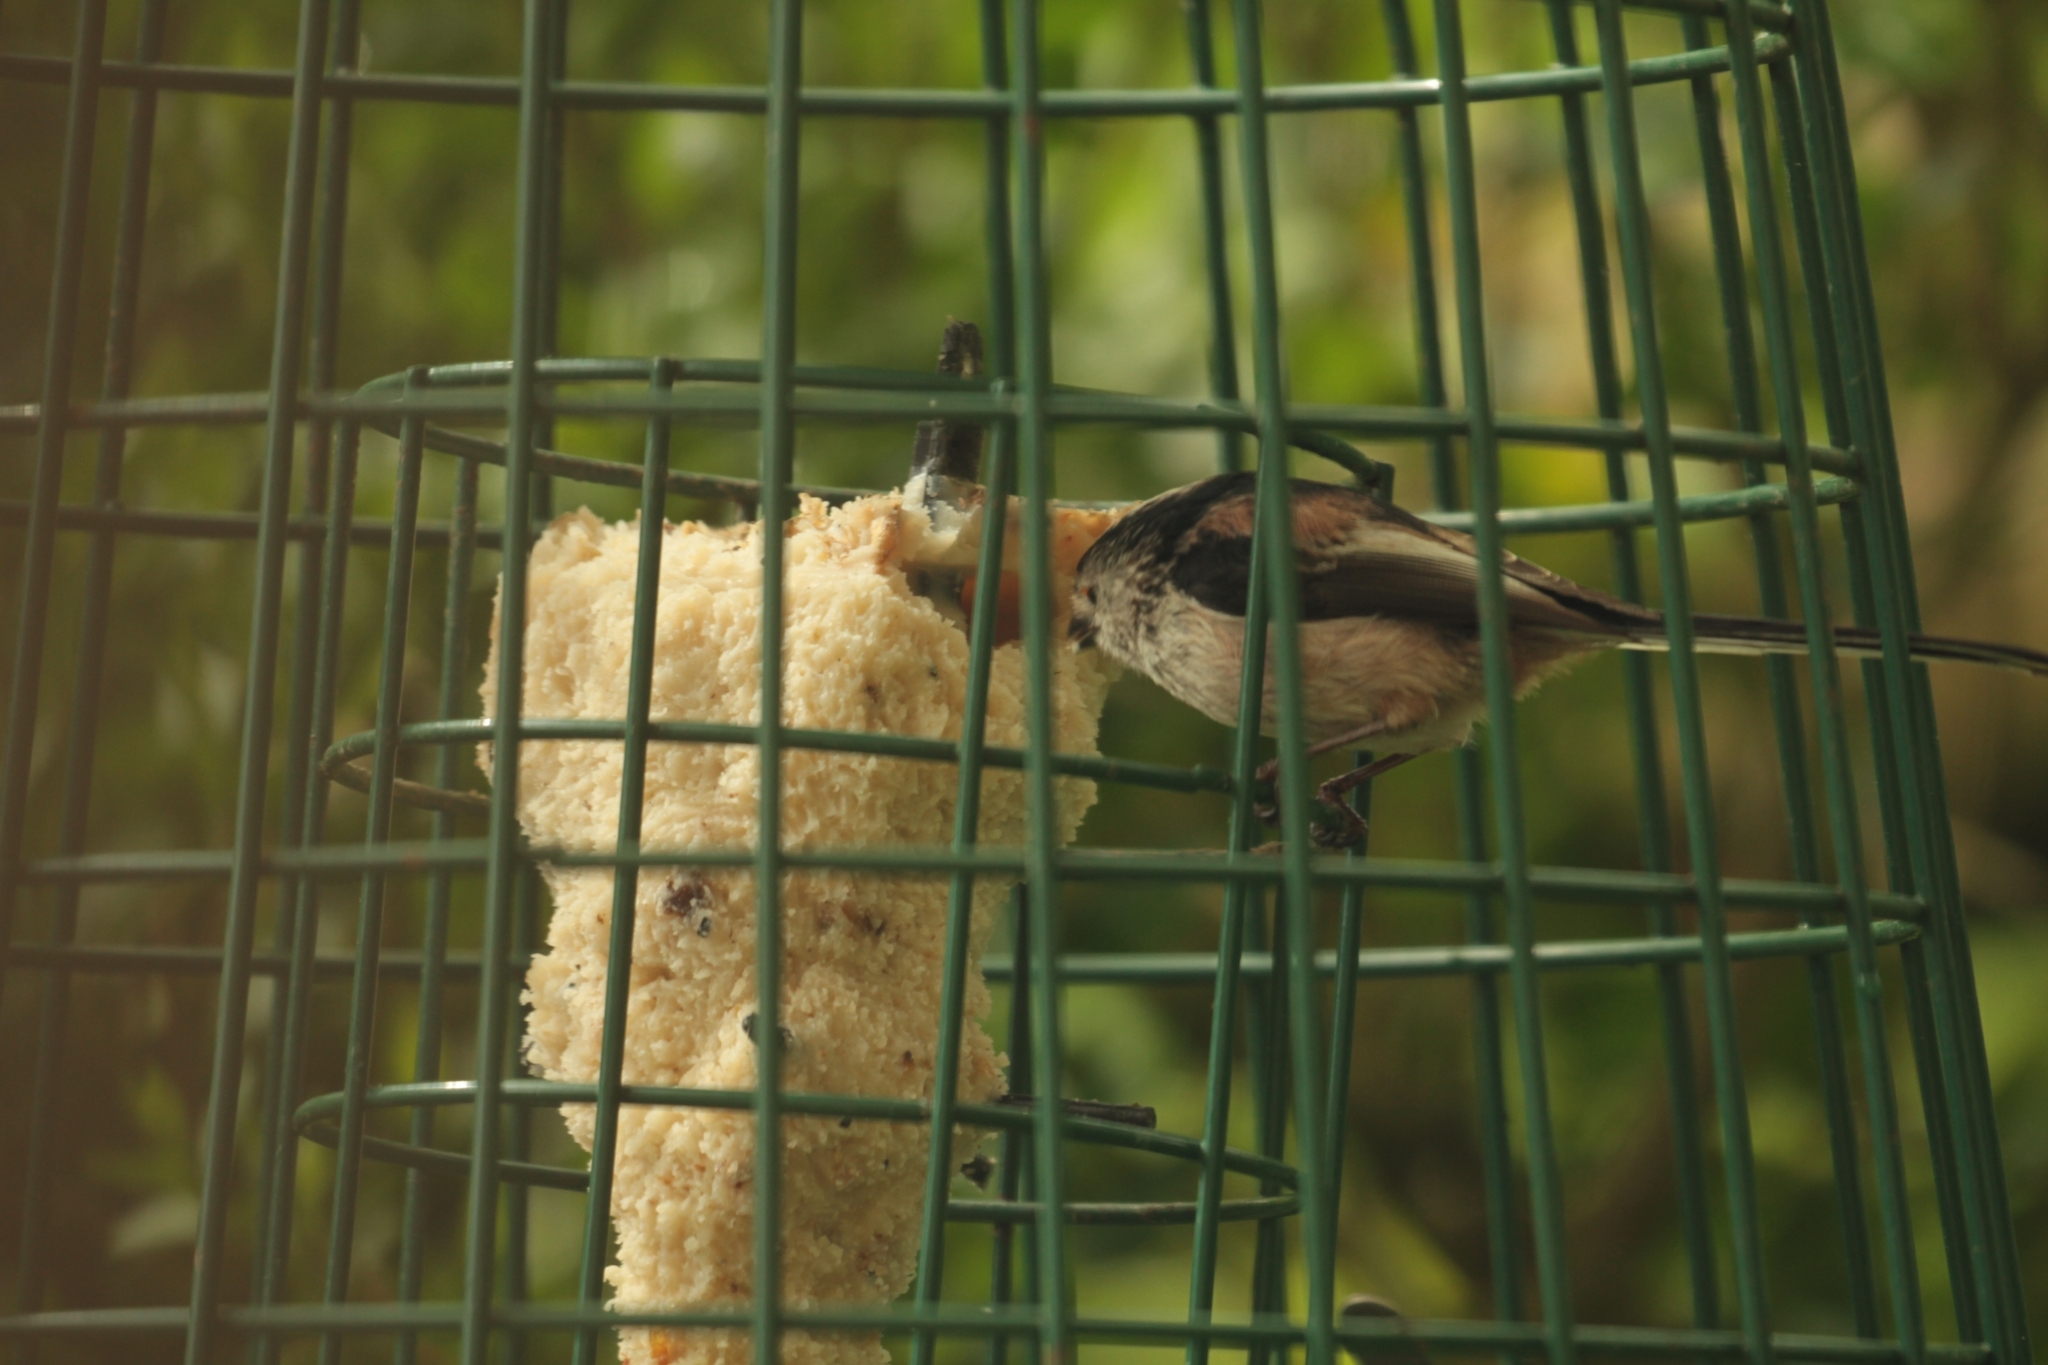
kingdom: Animalia
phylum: Chordata
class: Aves
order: Passeriformes
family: Aegithalidae
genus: Aegithalos
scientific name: Aegithalos caudatus
